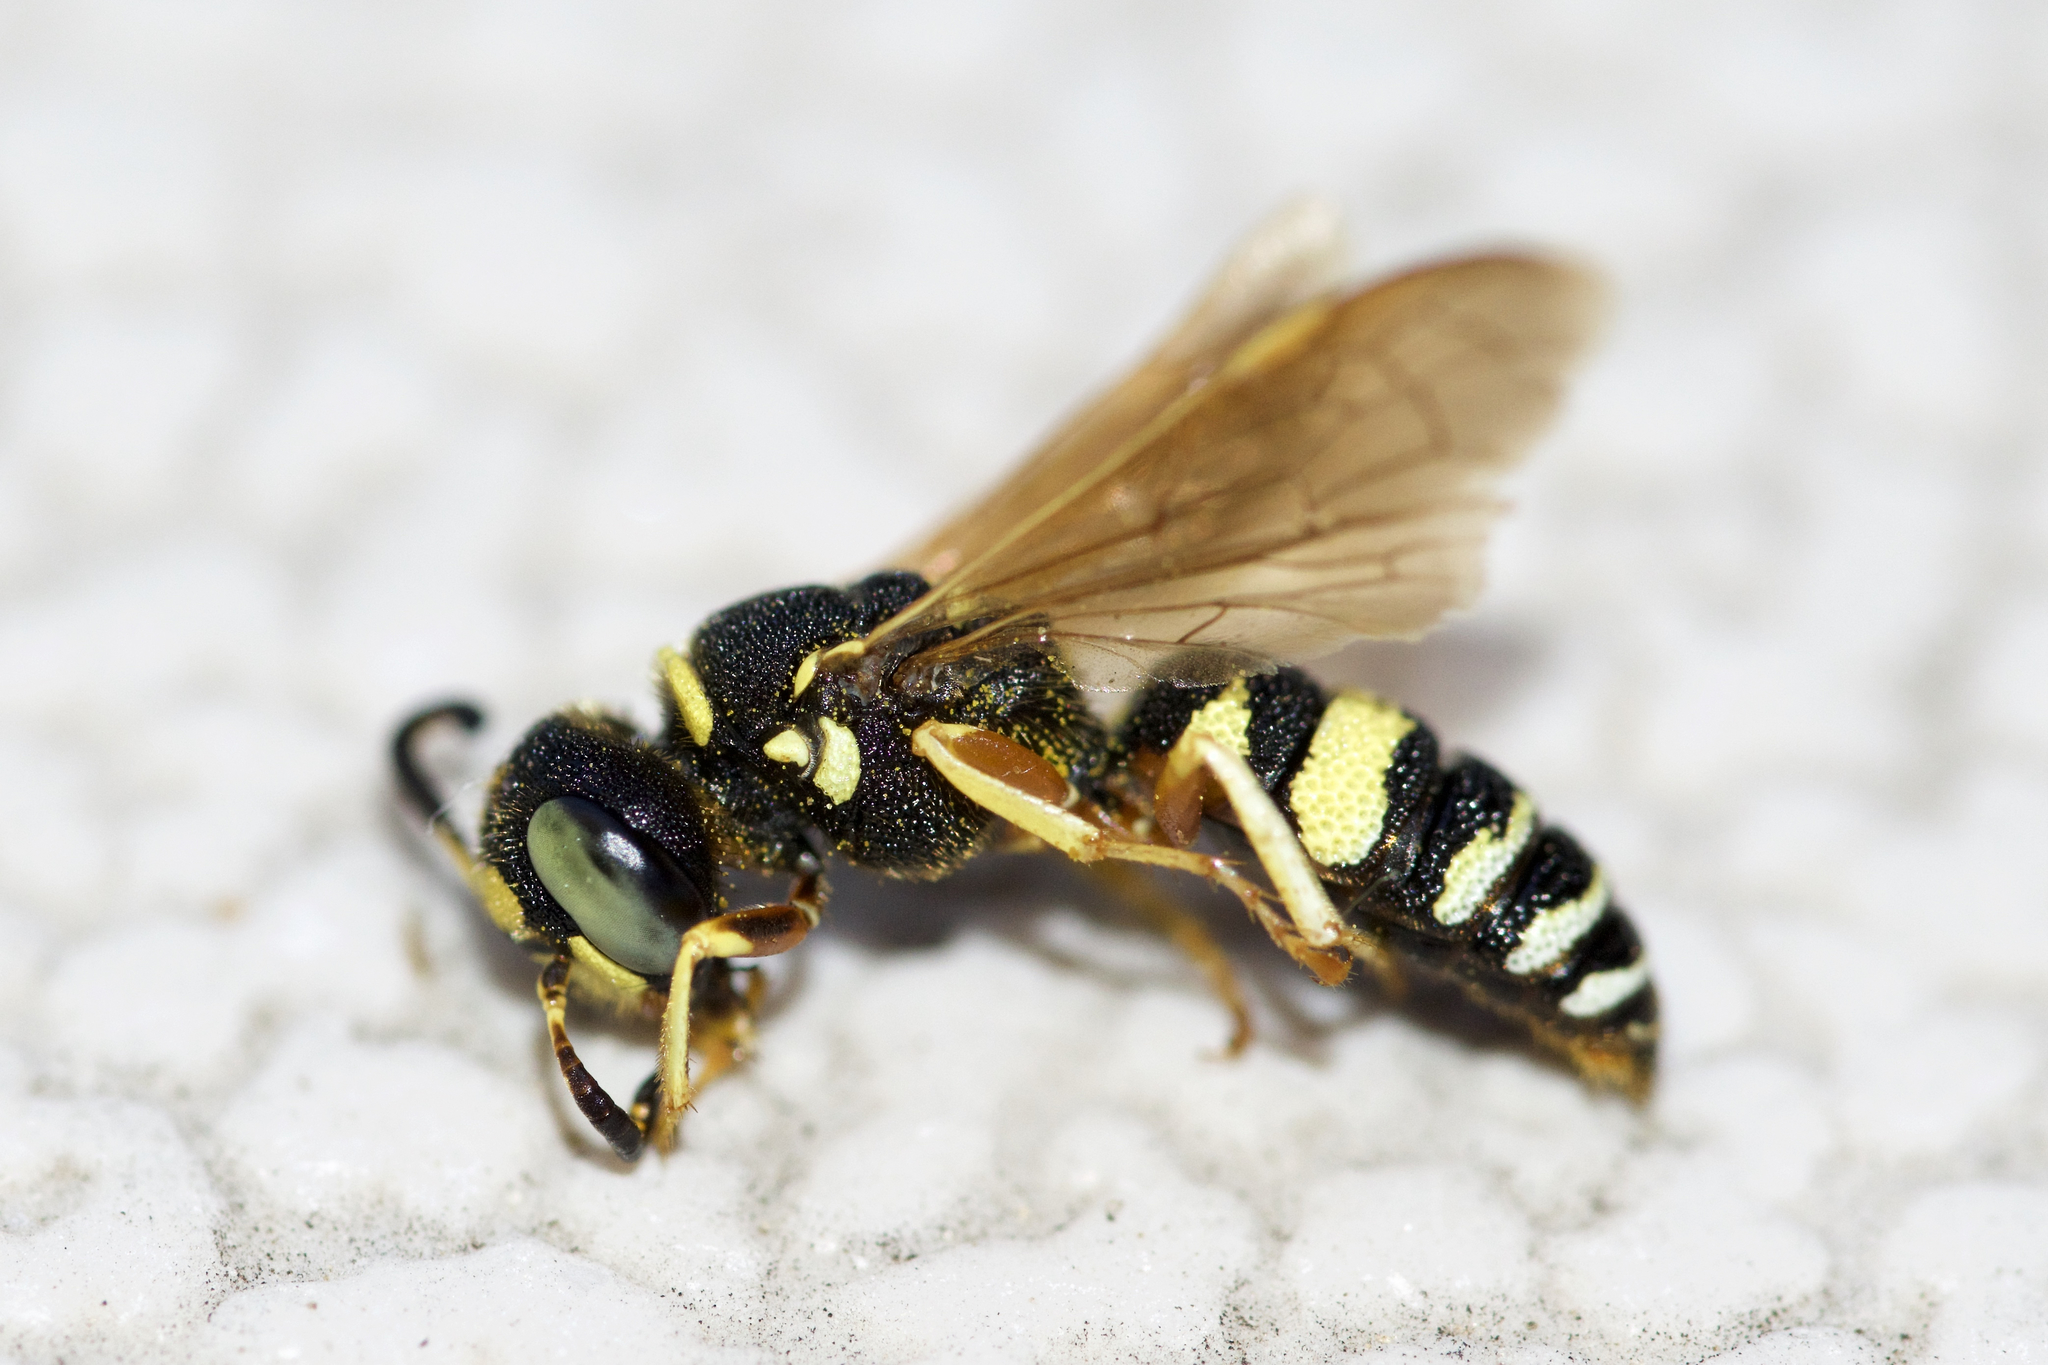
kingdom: Animalia
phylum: Arthropoda
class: Insecta
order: Hymenoptera
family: Crabronidae
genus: Philanthus
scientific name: Philanthus ventilabris
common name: Bee-killer wasp
